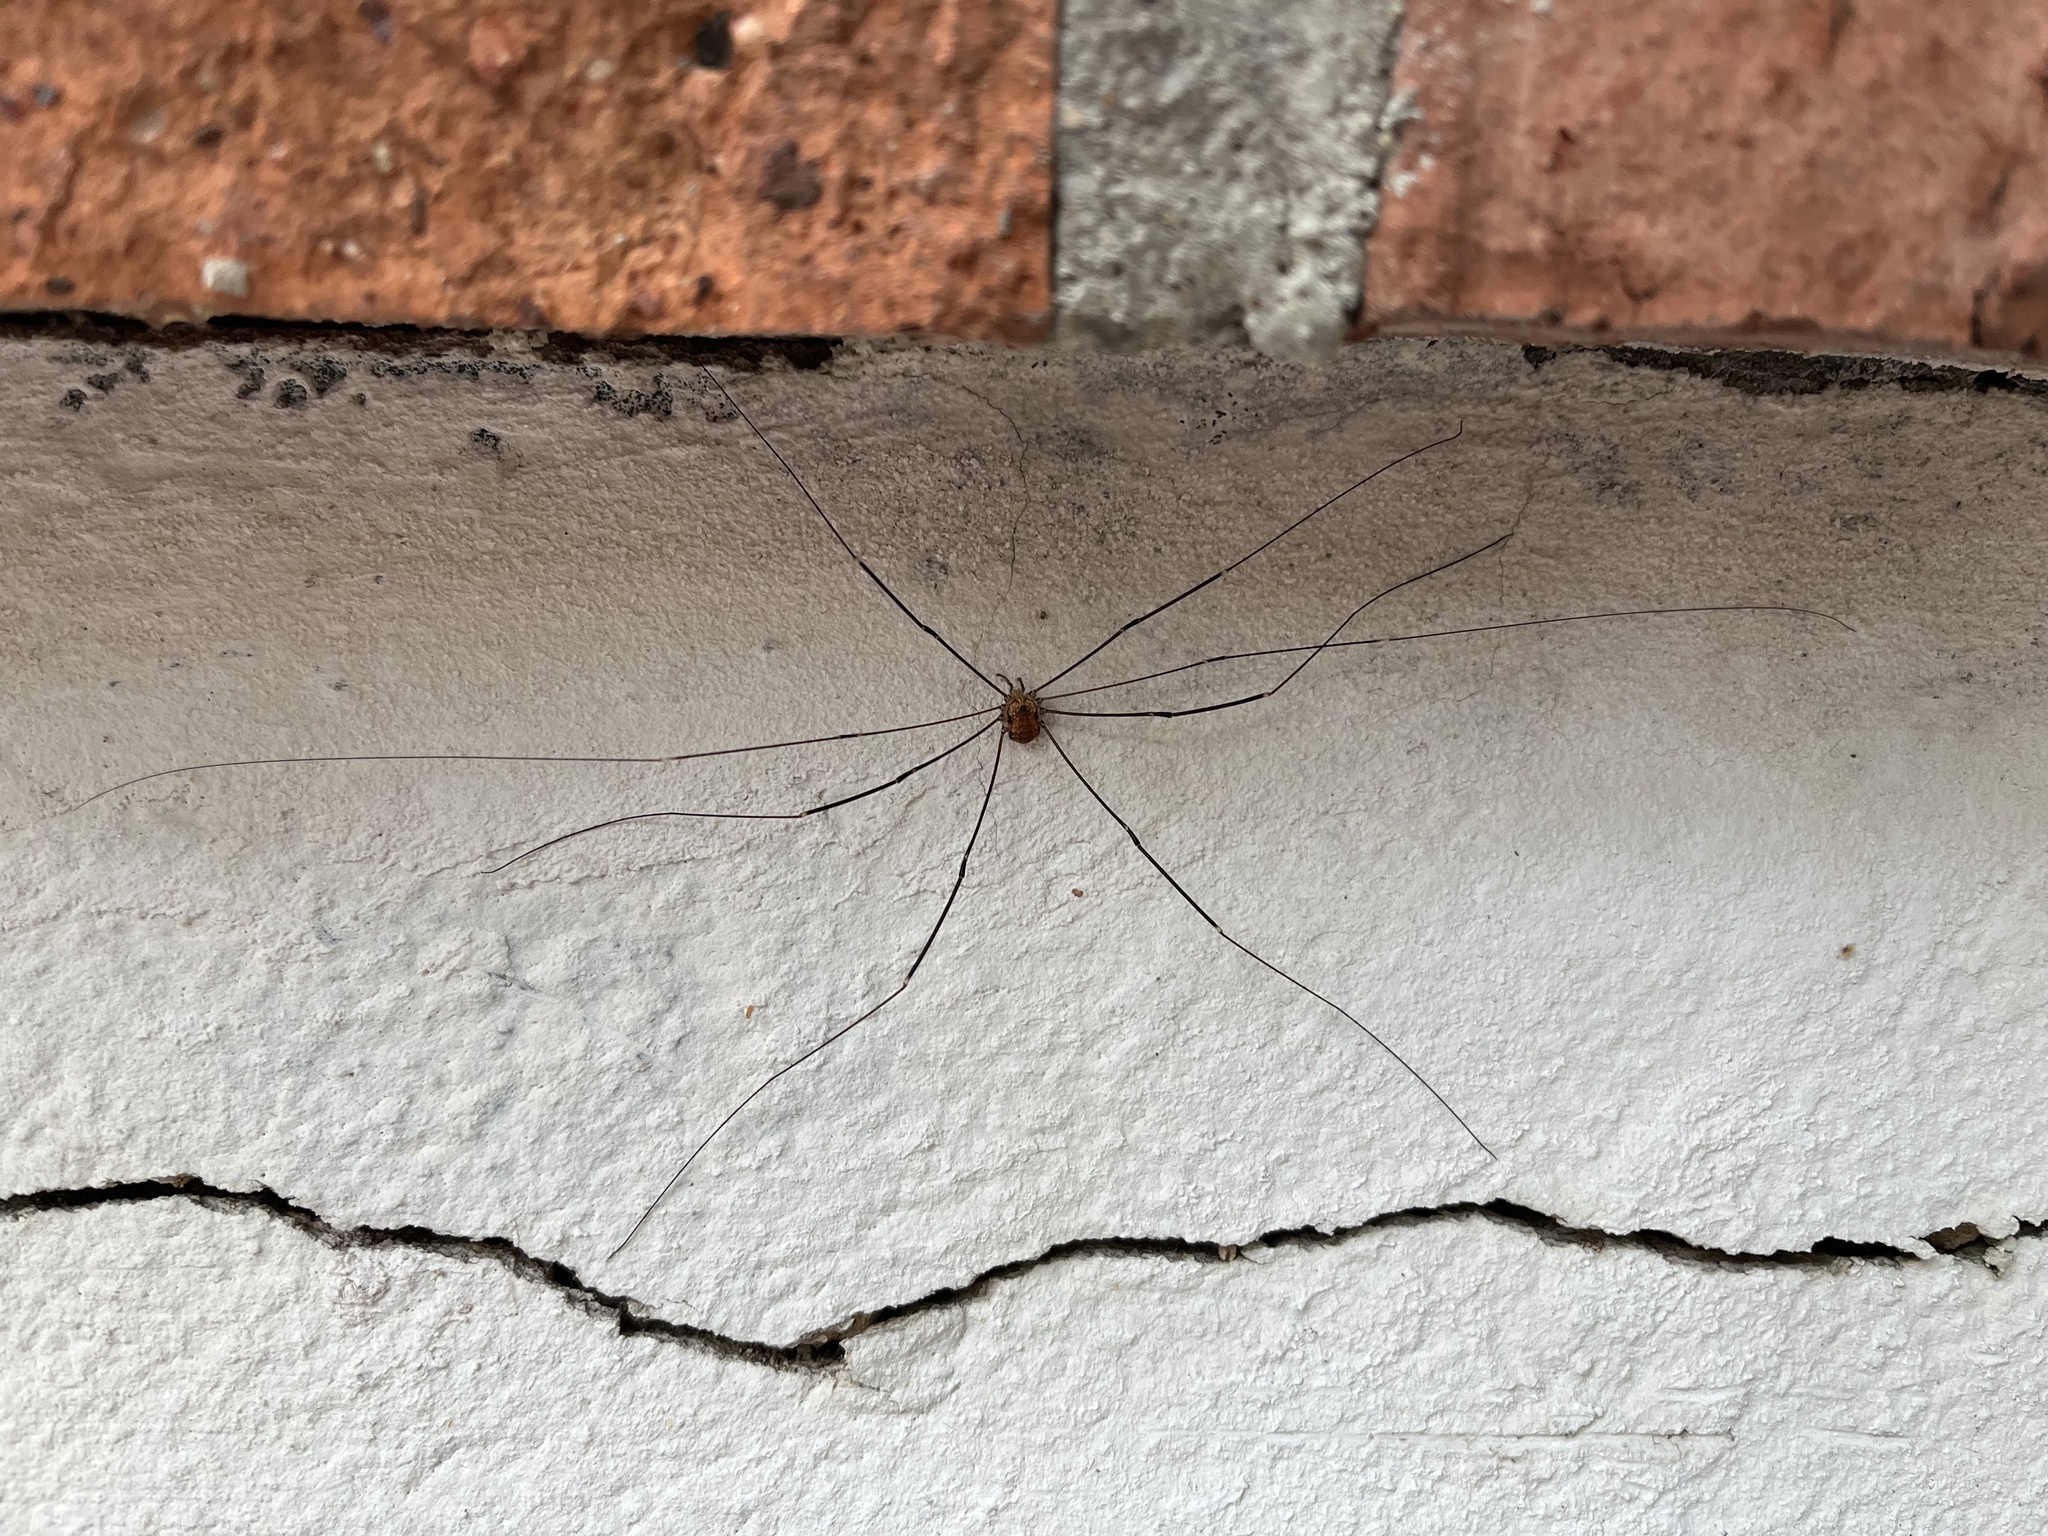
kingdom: Animalia
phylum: Arthropoda
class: Arachnida
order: Opiliones
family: Sclerosomatidae
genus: Leiobunum
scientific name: Leiobunum limbatum
